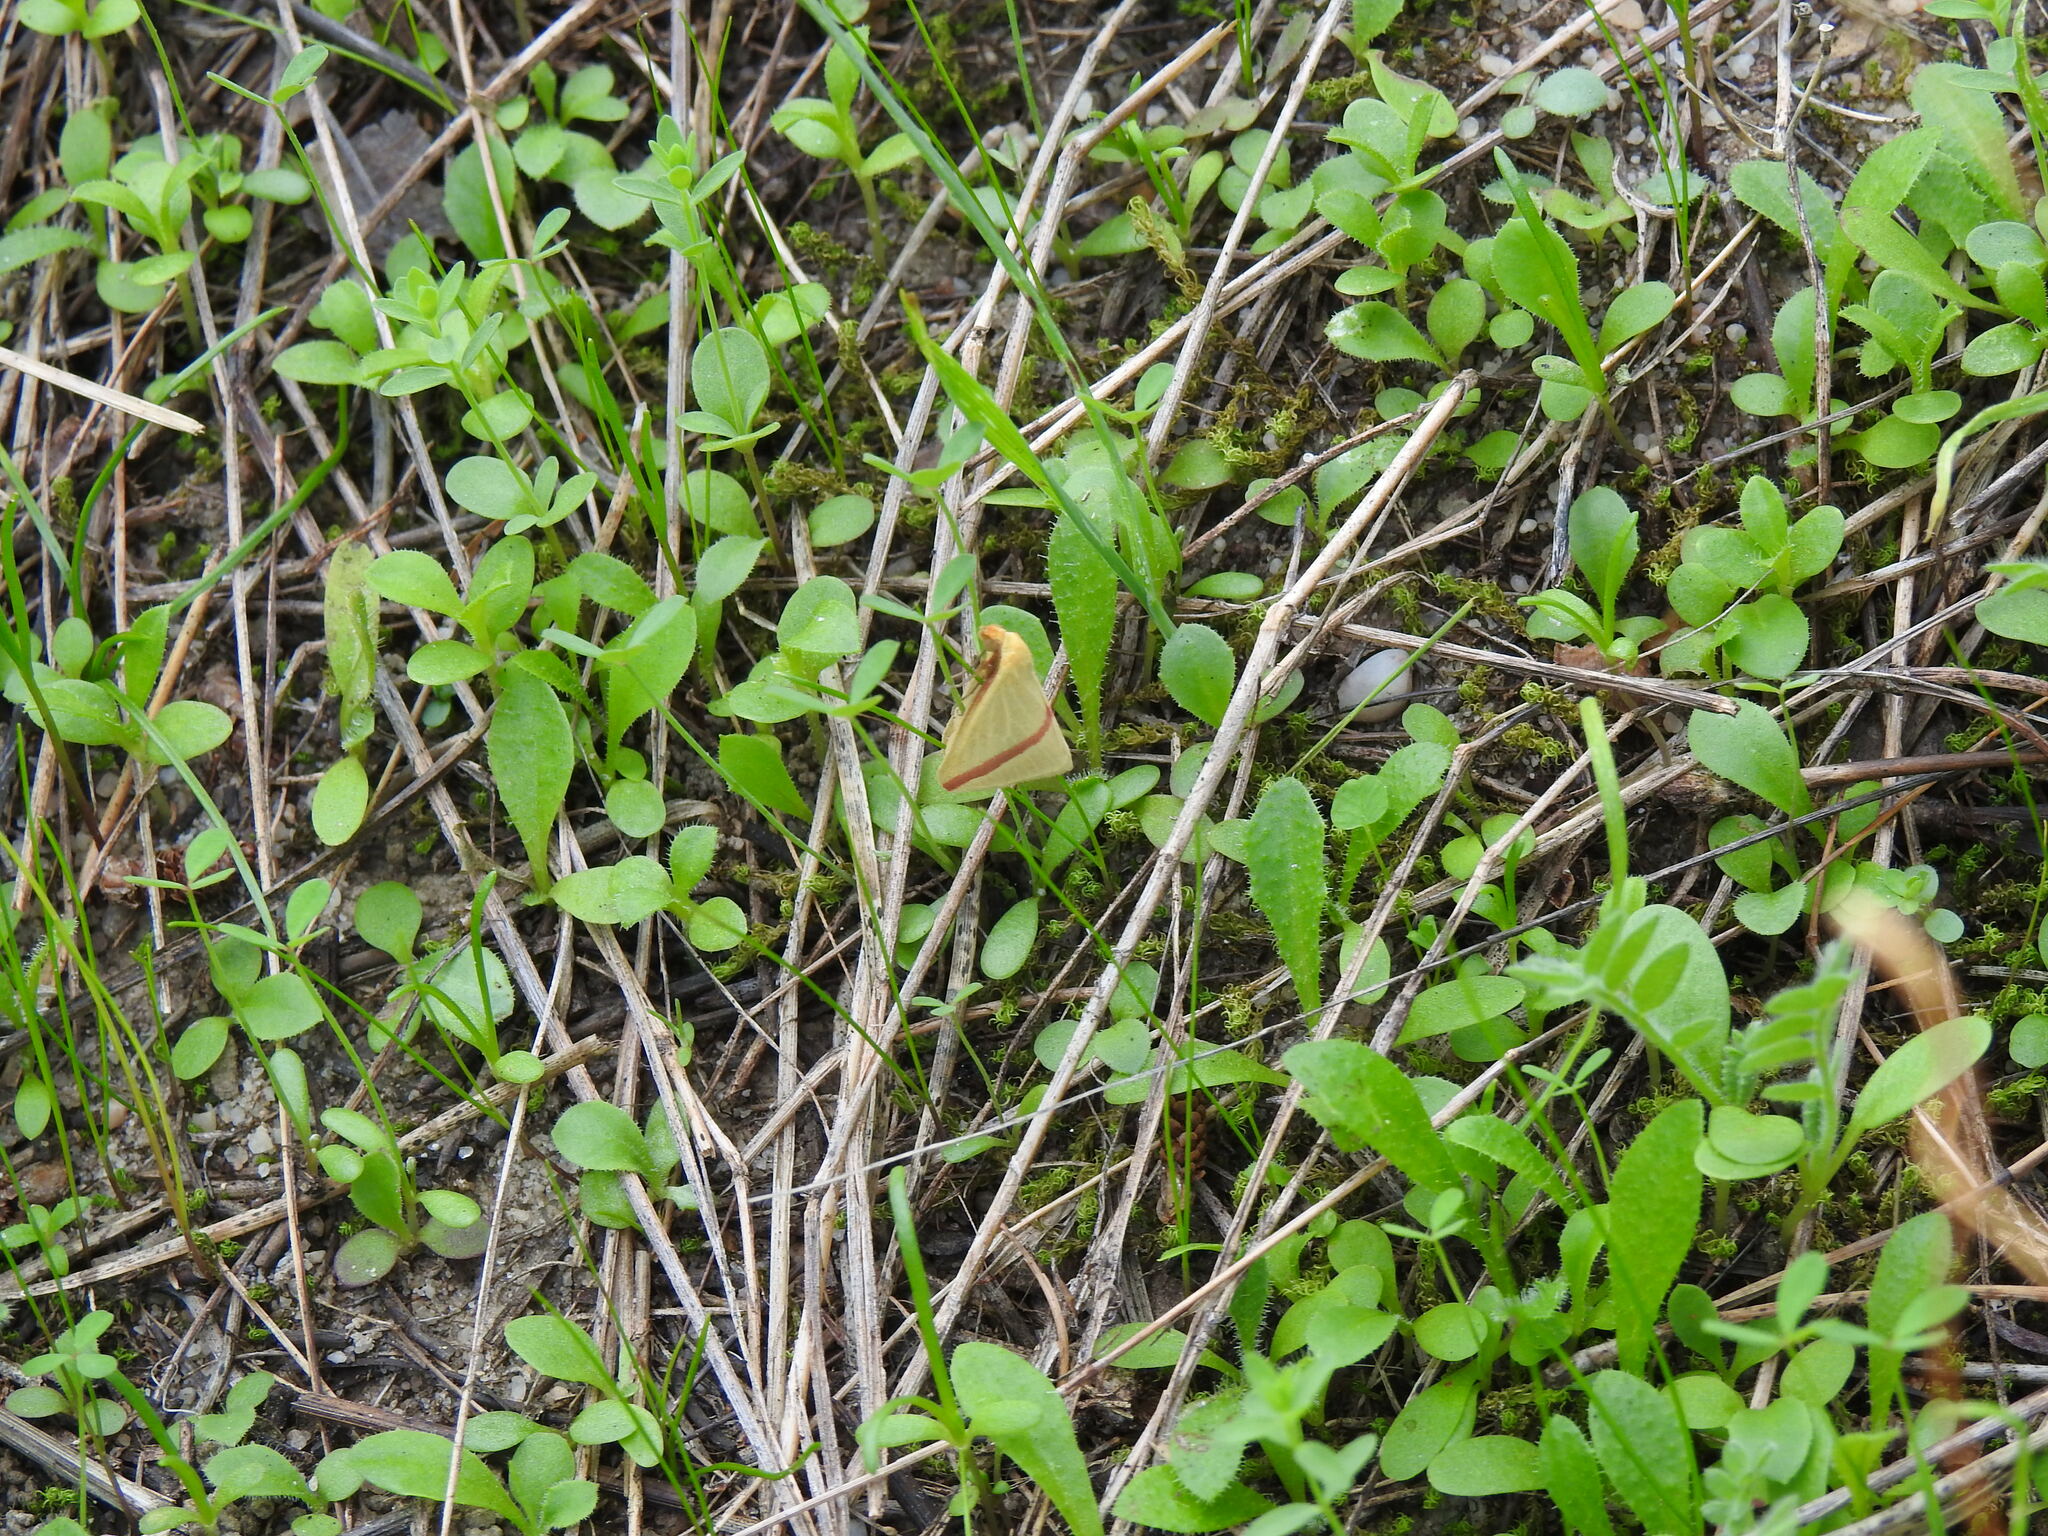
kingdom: Animalia
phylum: Arthropoda
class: Insecta
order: Lepidoptera
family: Geometridae
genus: Rhodometra
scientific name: Rhodometra sacraria
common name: Vestal
